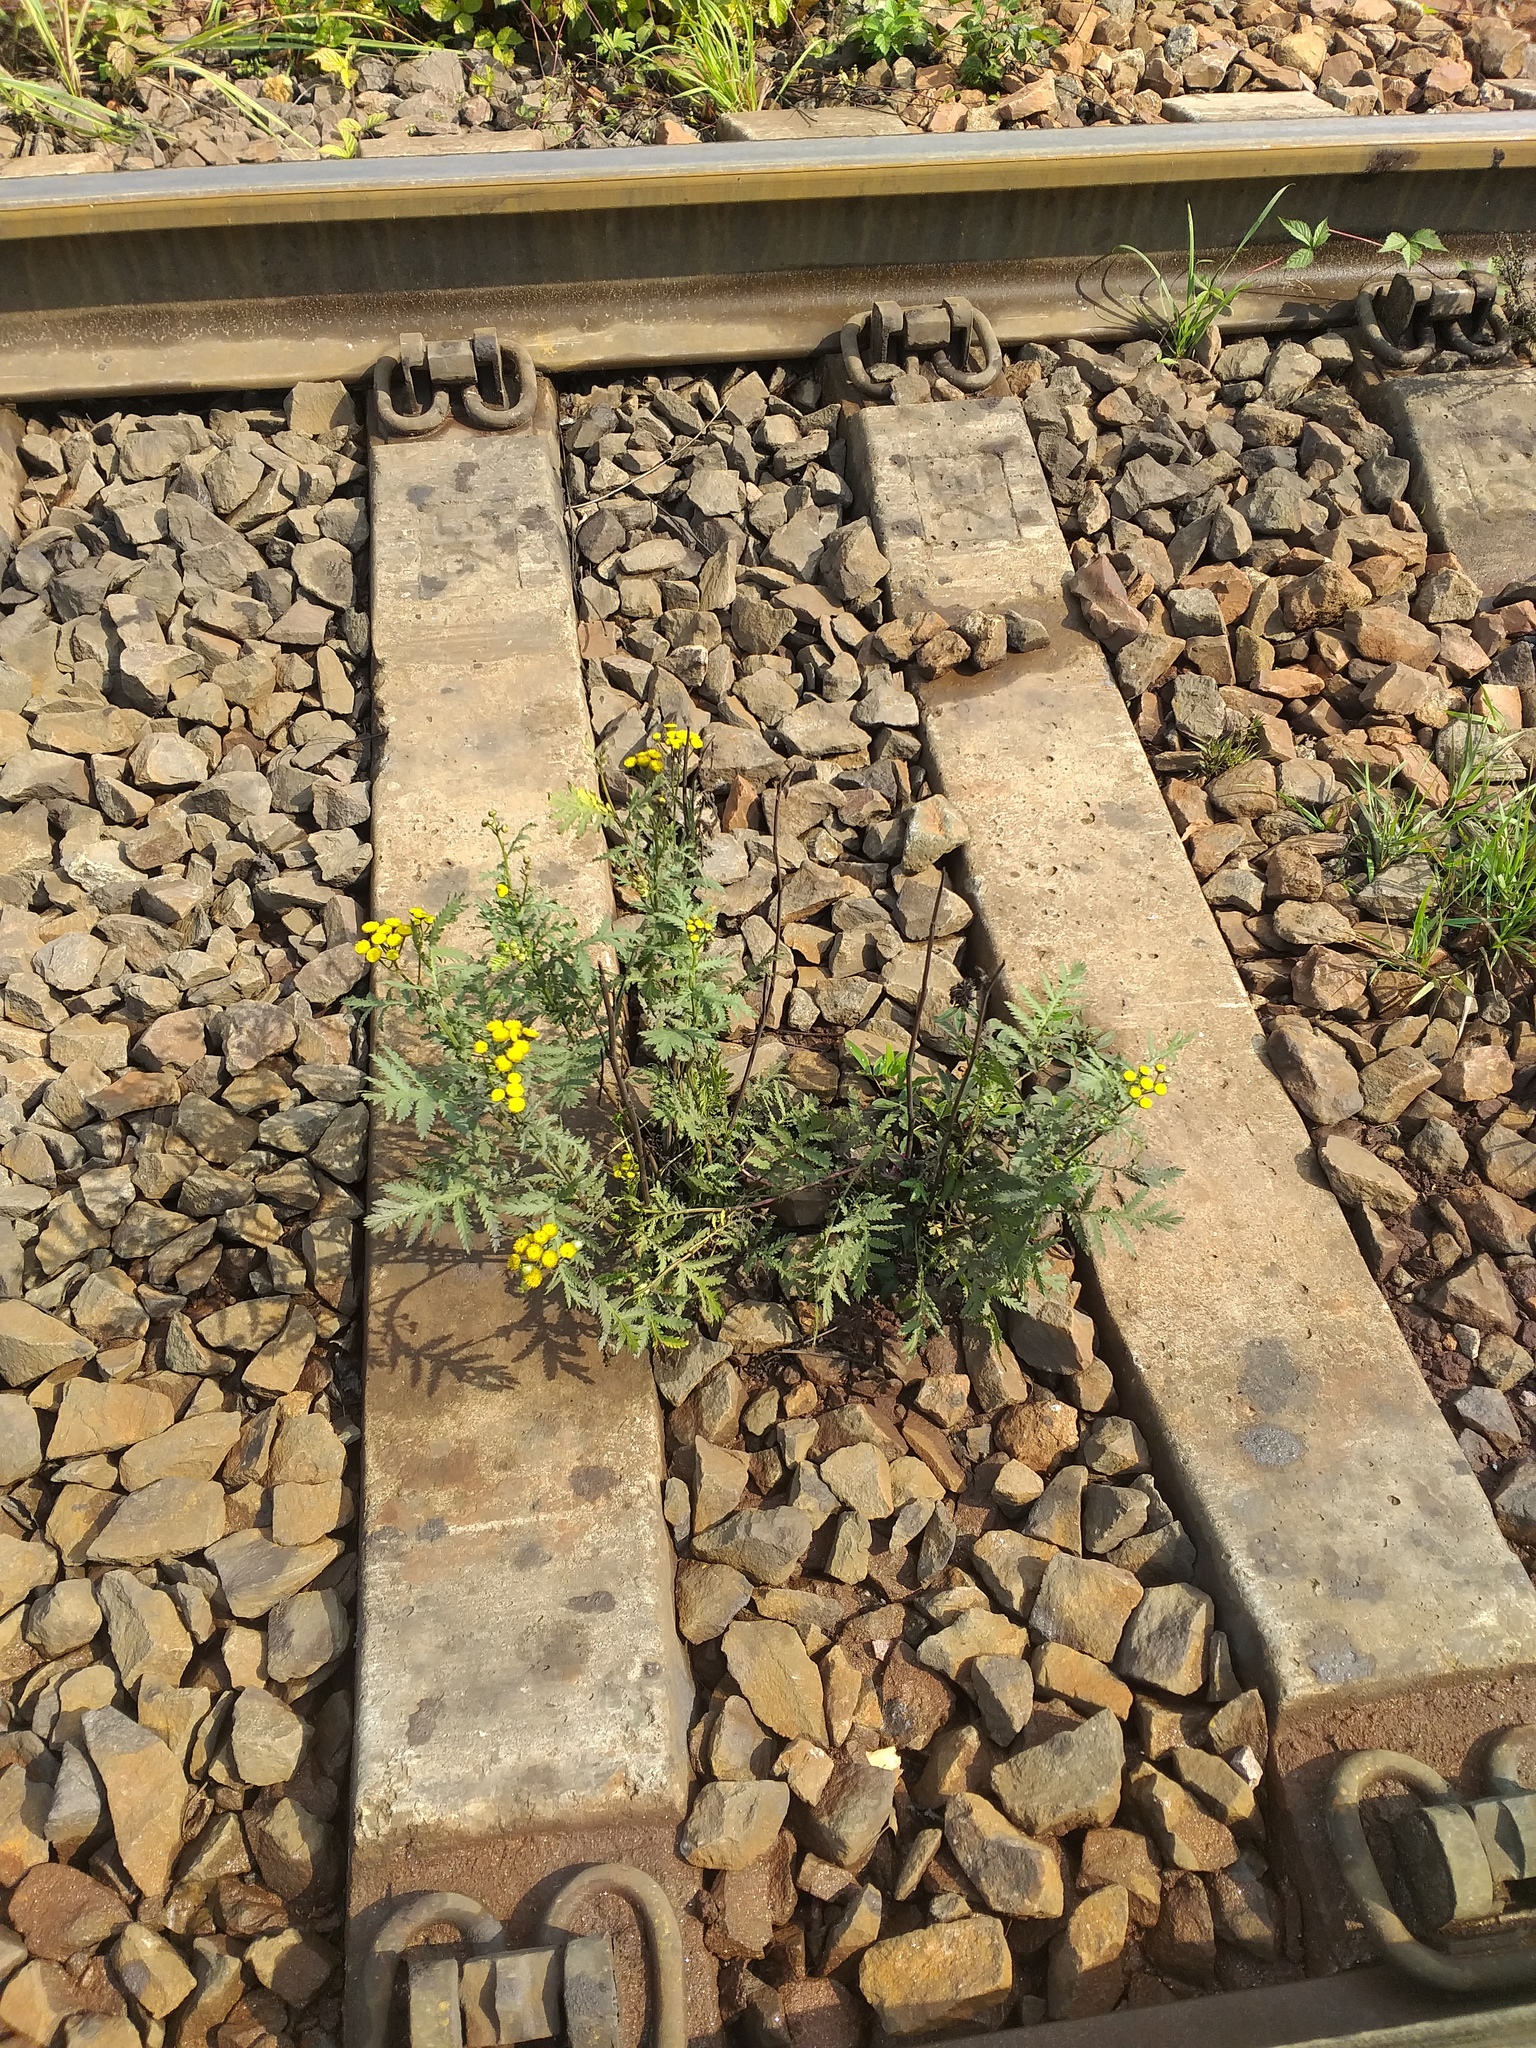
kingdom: Plantae
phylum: Tracheophyta
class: Magnoliopsida
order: Asterales
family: Asteraceae
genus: Tanacetum
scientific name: Tanacetum vulgare
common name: Common tansy
